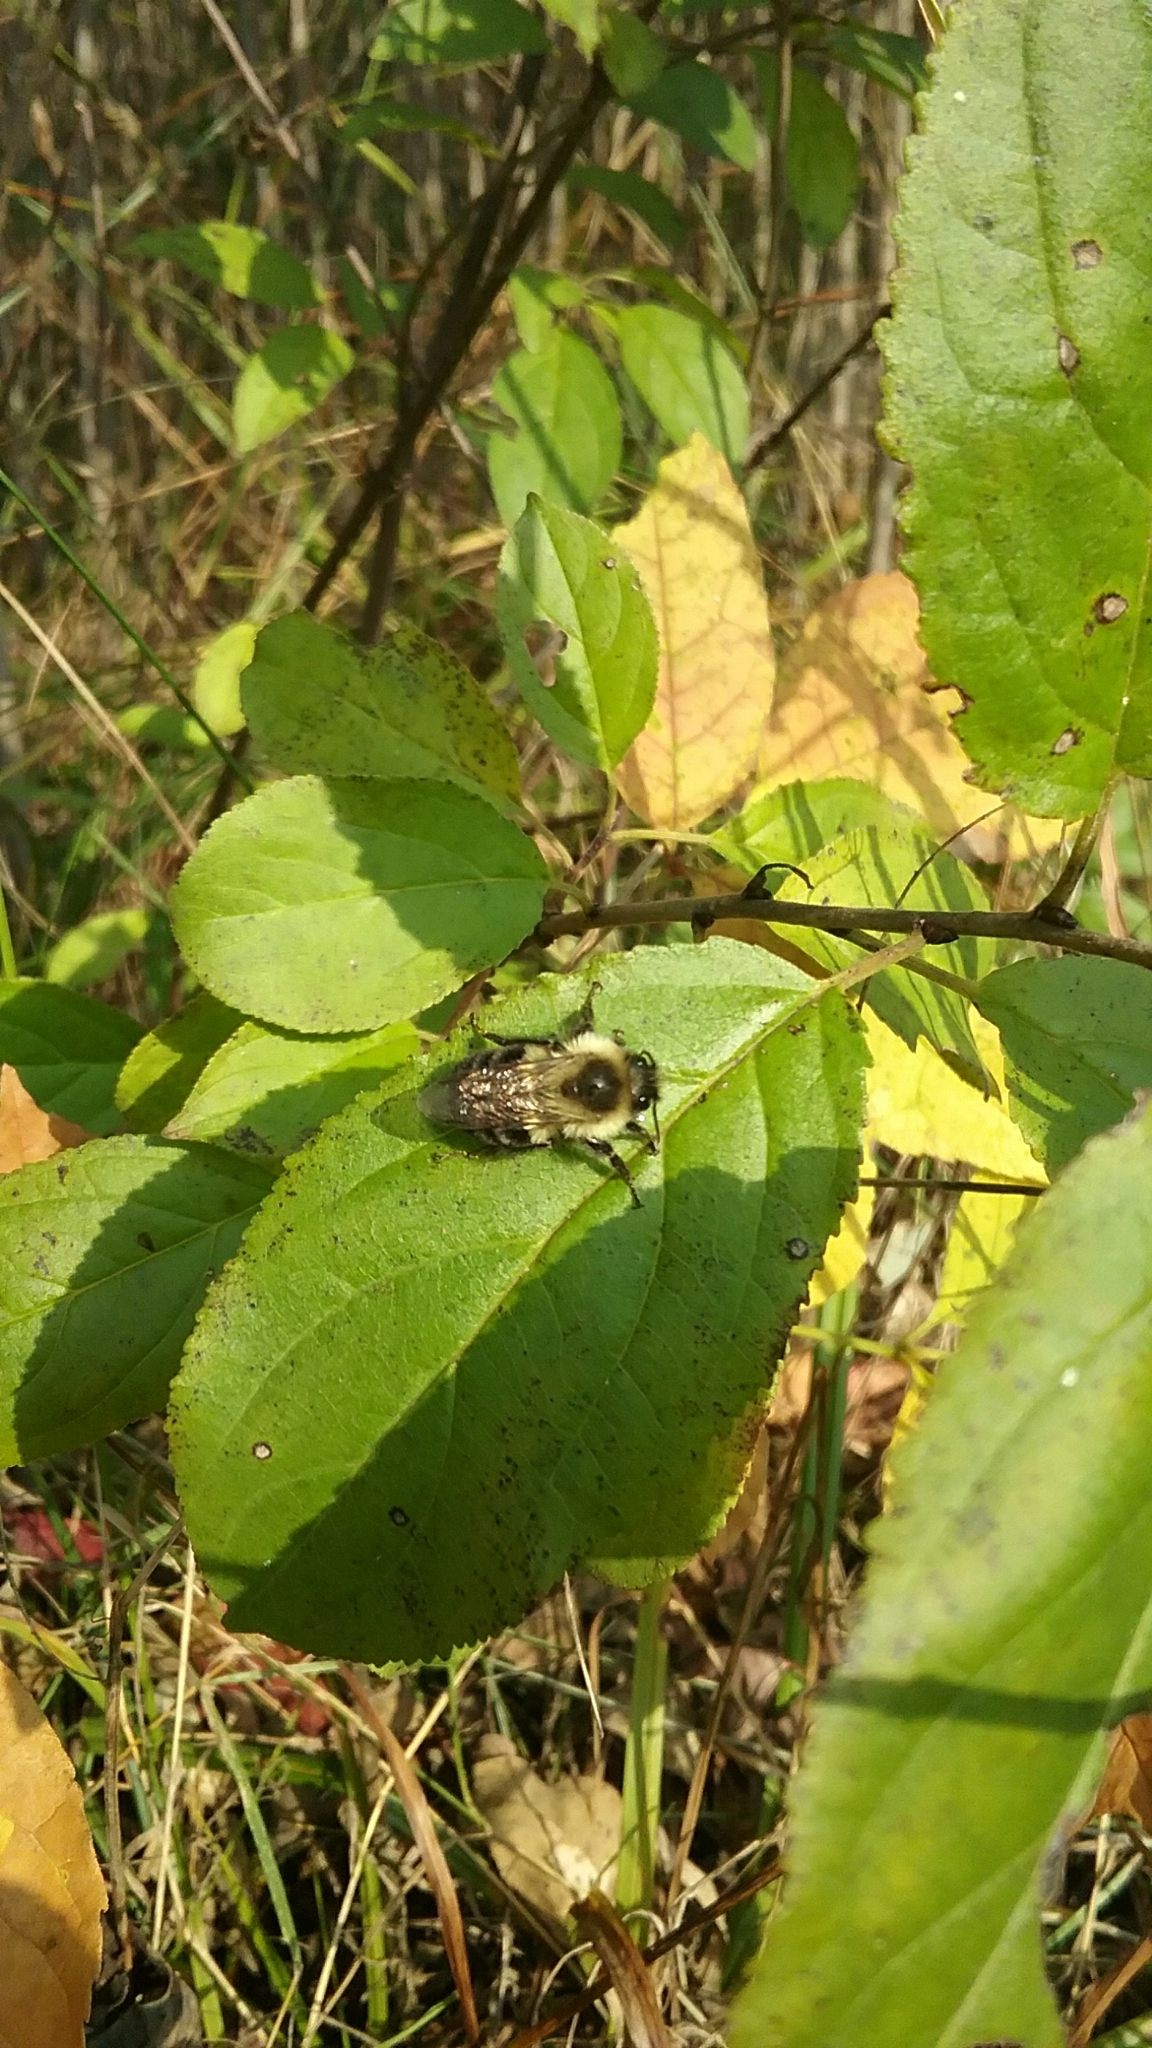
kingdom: Animalia
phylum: Arthropoda
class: Insecta
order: Hymenoptera
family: Apidae
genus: Bombus
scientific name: Bombus impatiens
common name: Common eastern bumble bee
